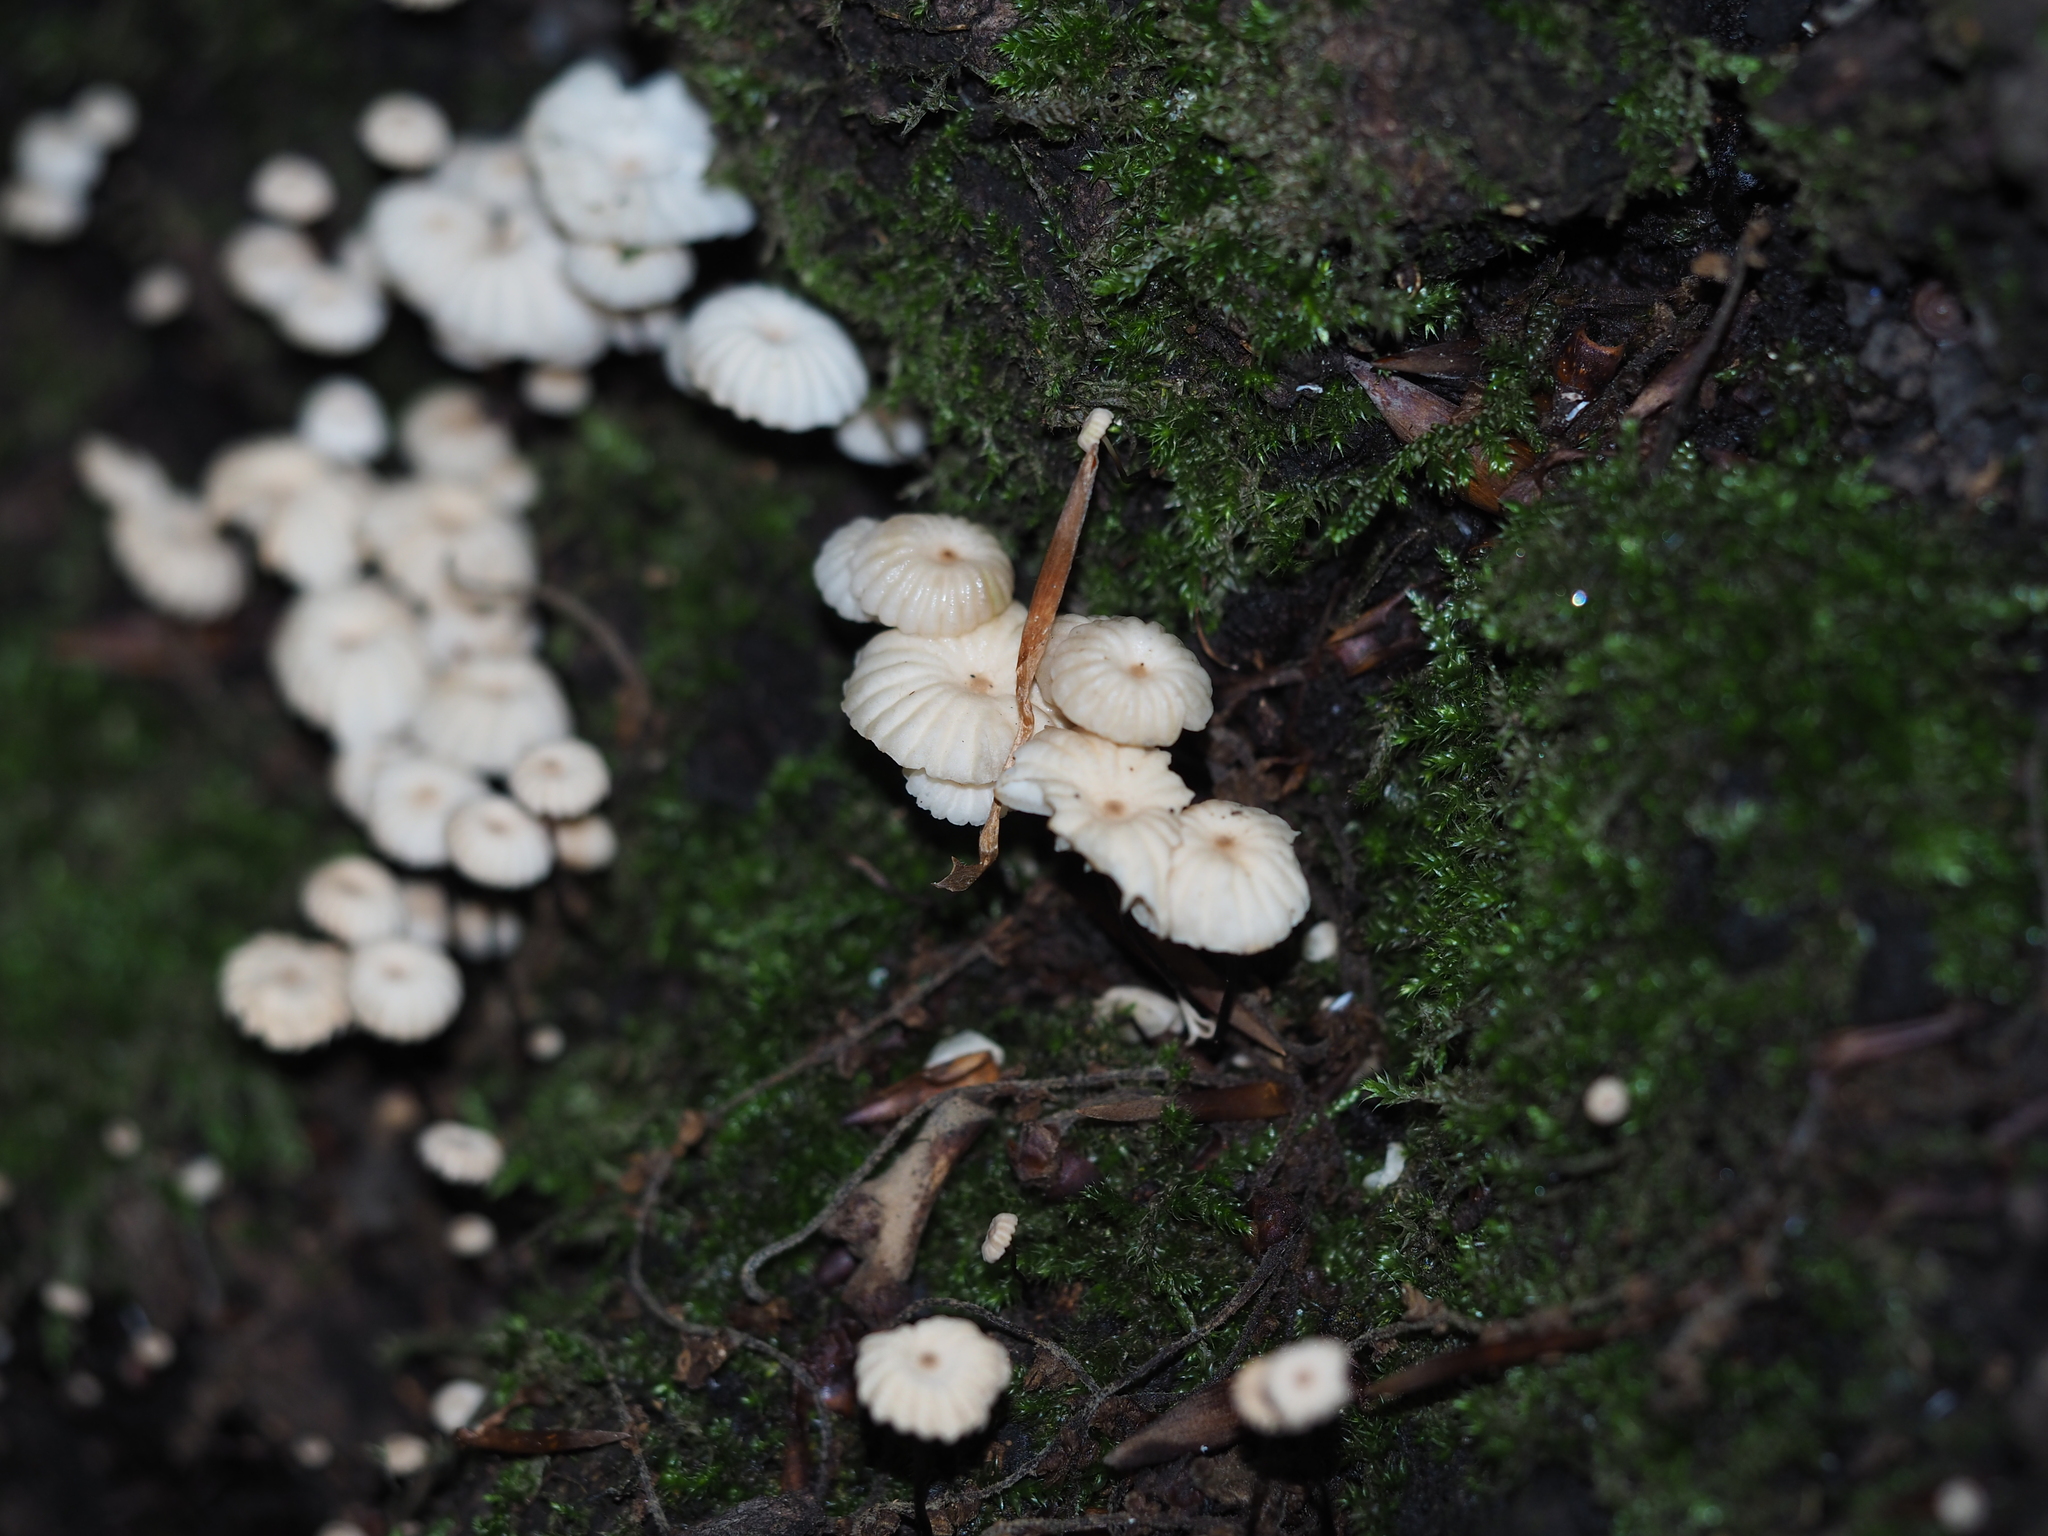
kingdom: Fungi
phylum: Basidiomycota
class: Agaricomycetes
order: Agaricales
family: Marasmiaceae
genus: Marasmius
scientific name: Marasmius rotula
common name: Collared parachute
